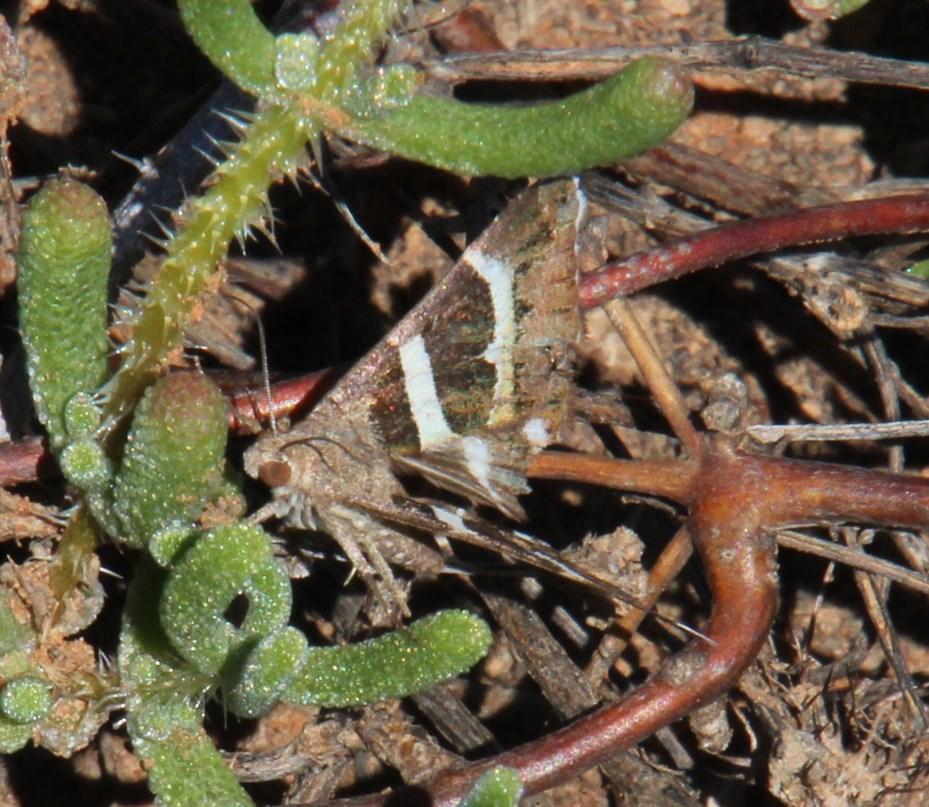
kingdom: Animalia
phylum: Arthropoda
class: Insecta
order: Lepidoptera
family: Erebidae
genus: Grammodes
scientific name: Grammodes stolida
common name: Geometrician
